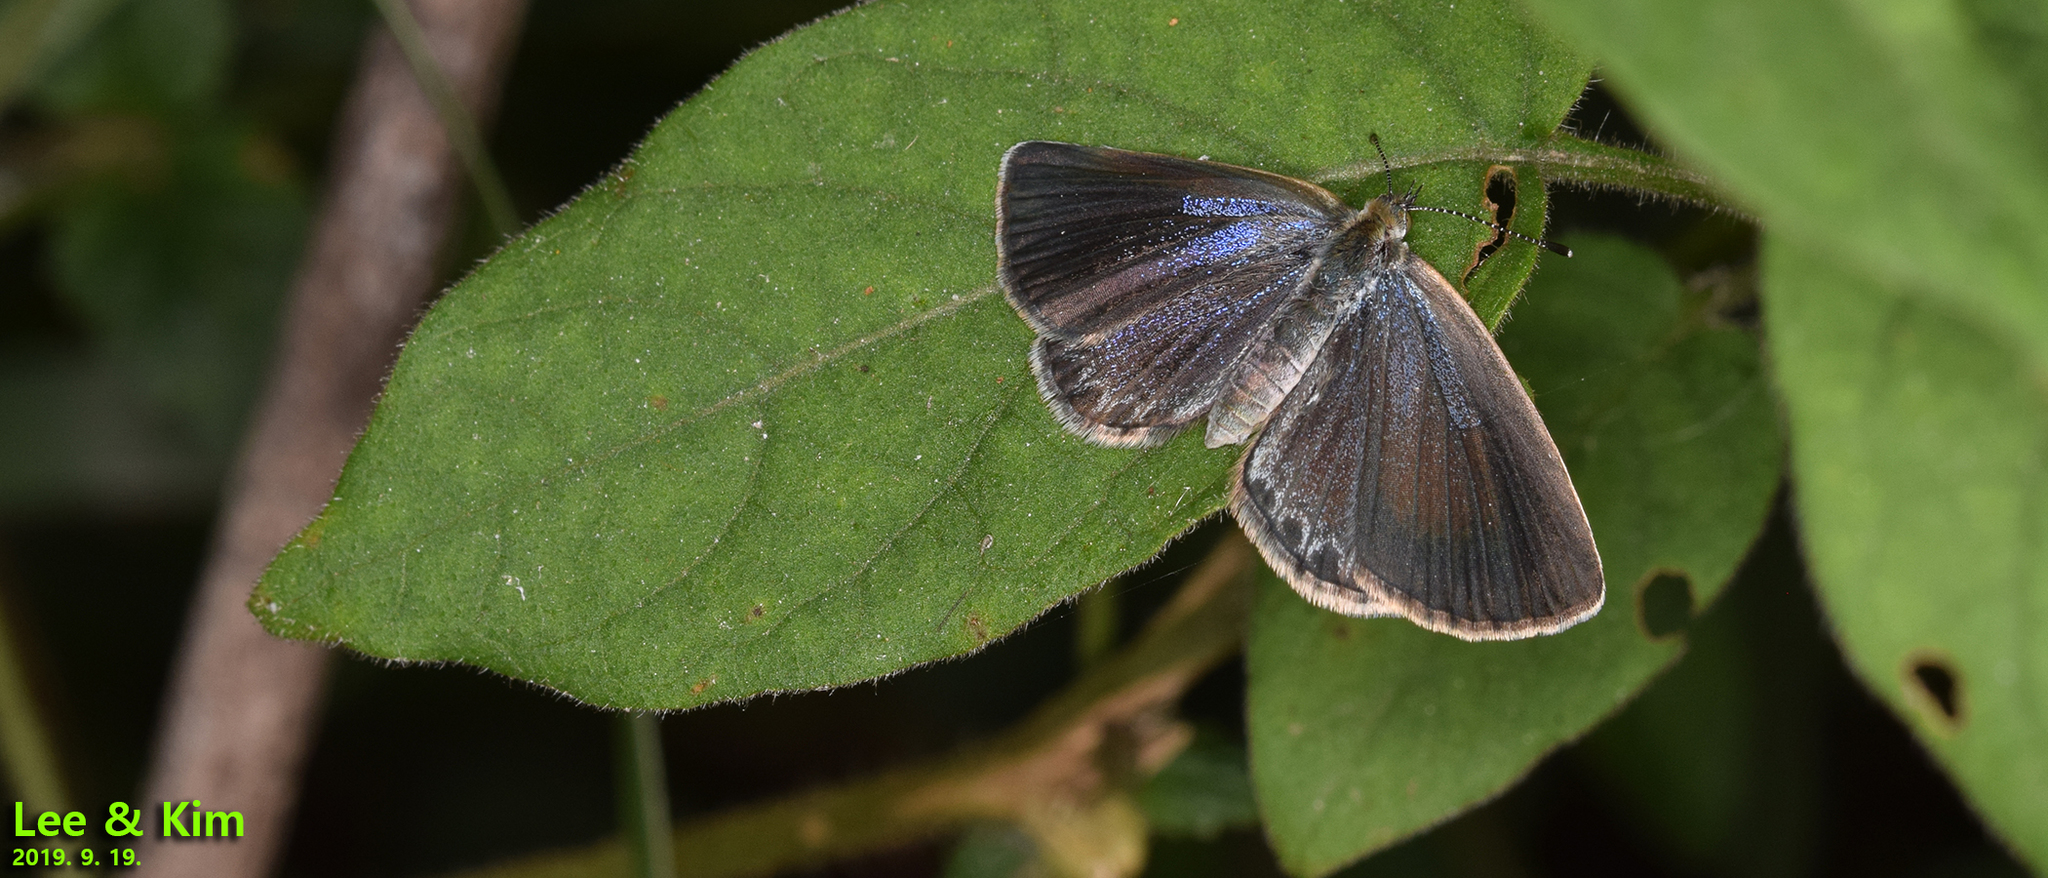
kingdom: Animalia
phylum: Arthropoda
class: Insecta
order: Lepidoptera
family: Lycaenidae
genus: Pseudozizeeria
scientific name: Pseudozizeeria maha
